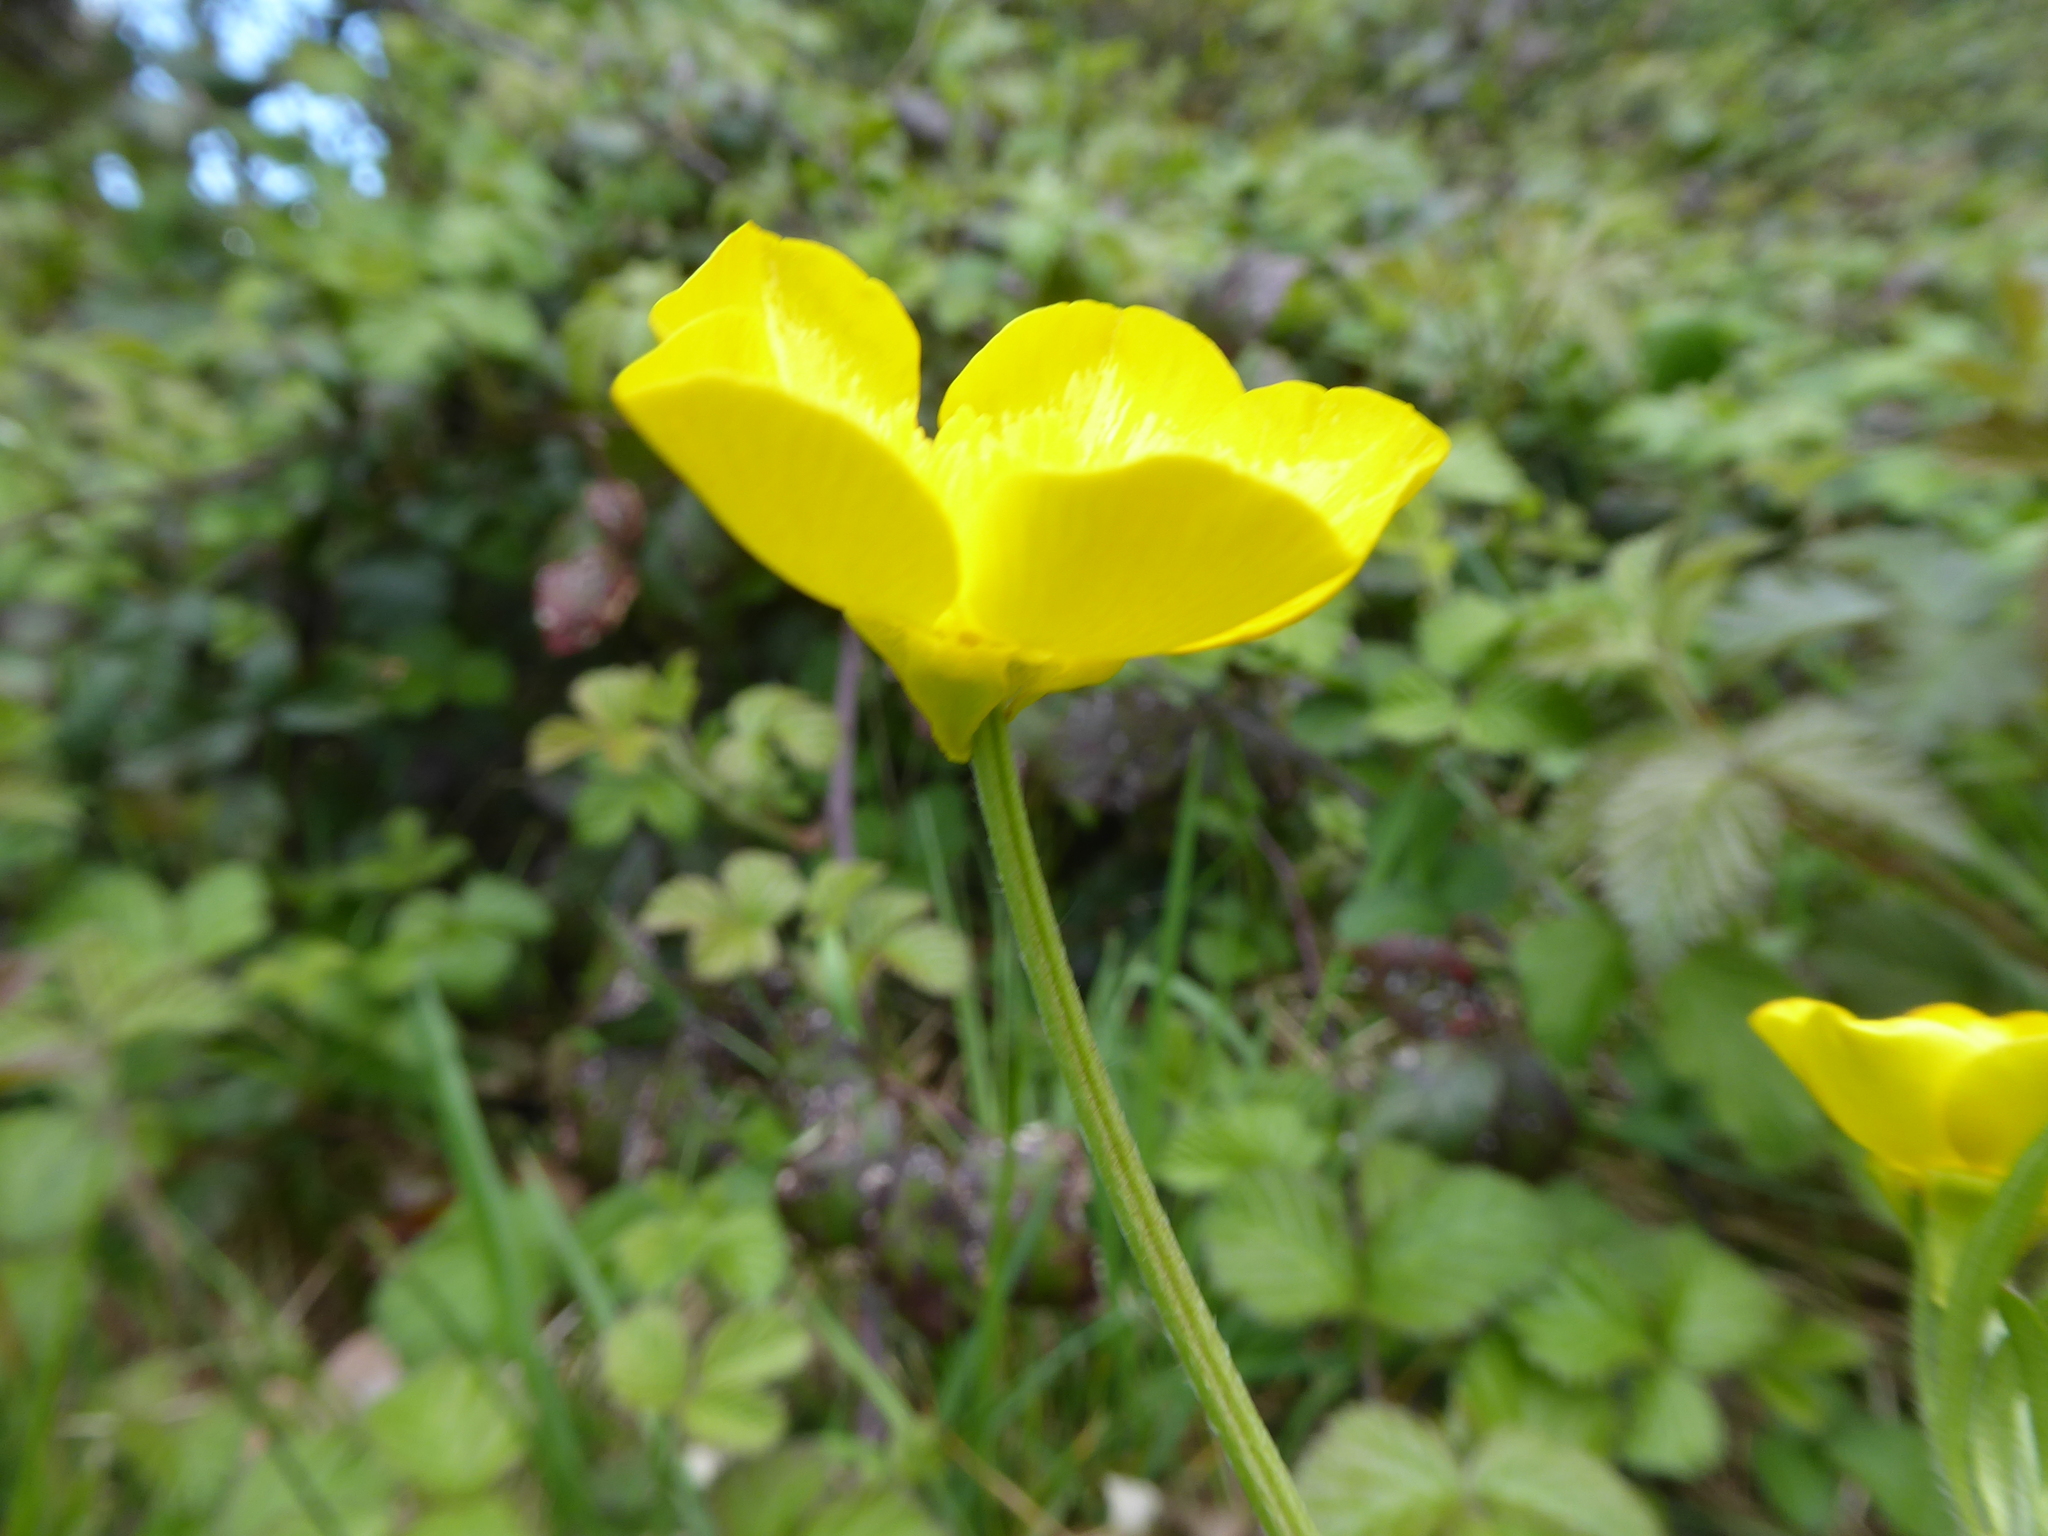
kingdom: Plantae
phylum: Tracheophyta
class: Magnoliopsida
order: Ranunculales
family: Ranunculaceae
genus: Ranunculus
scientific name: Ranunculus bulbosus
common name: Bulbous buttercup
